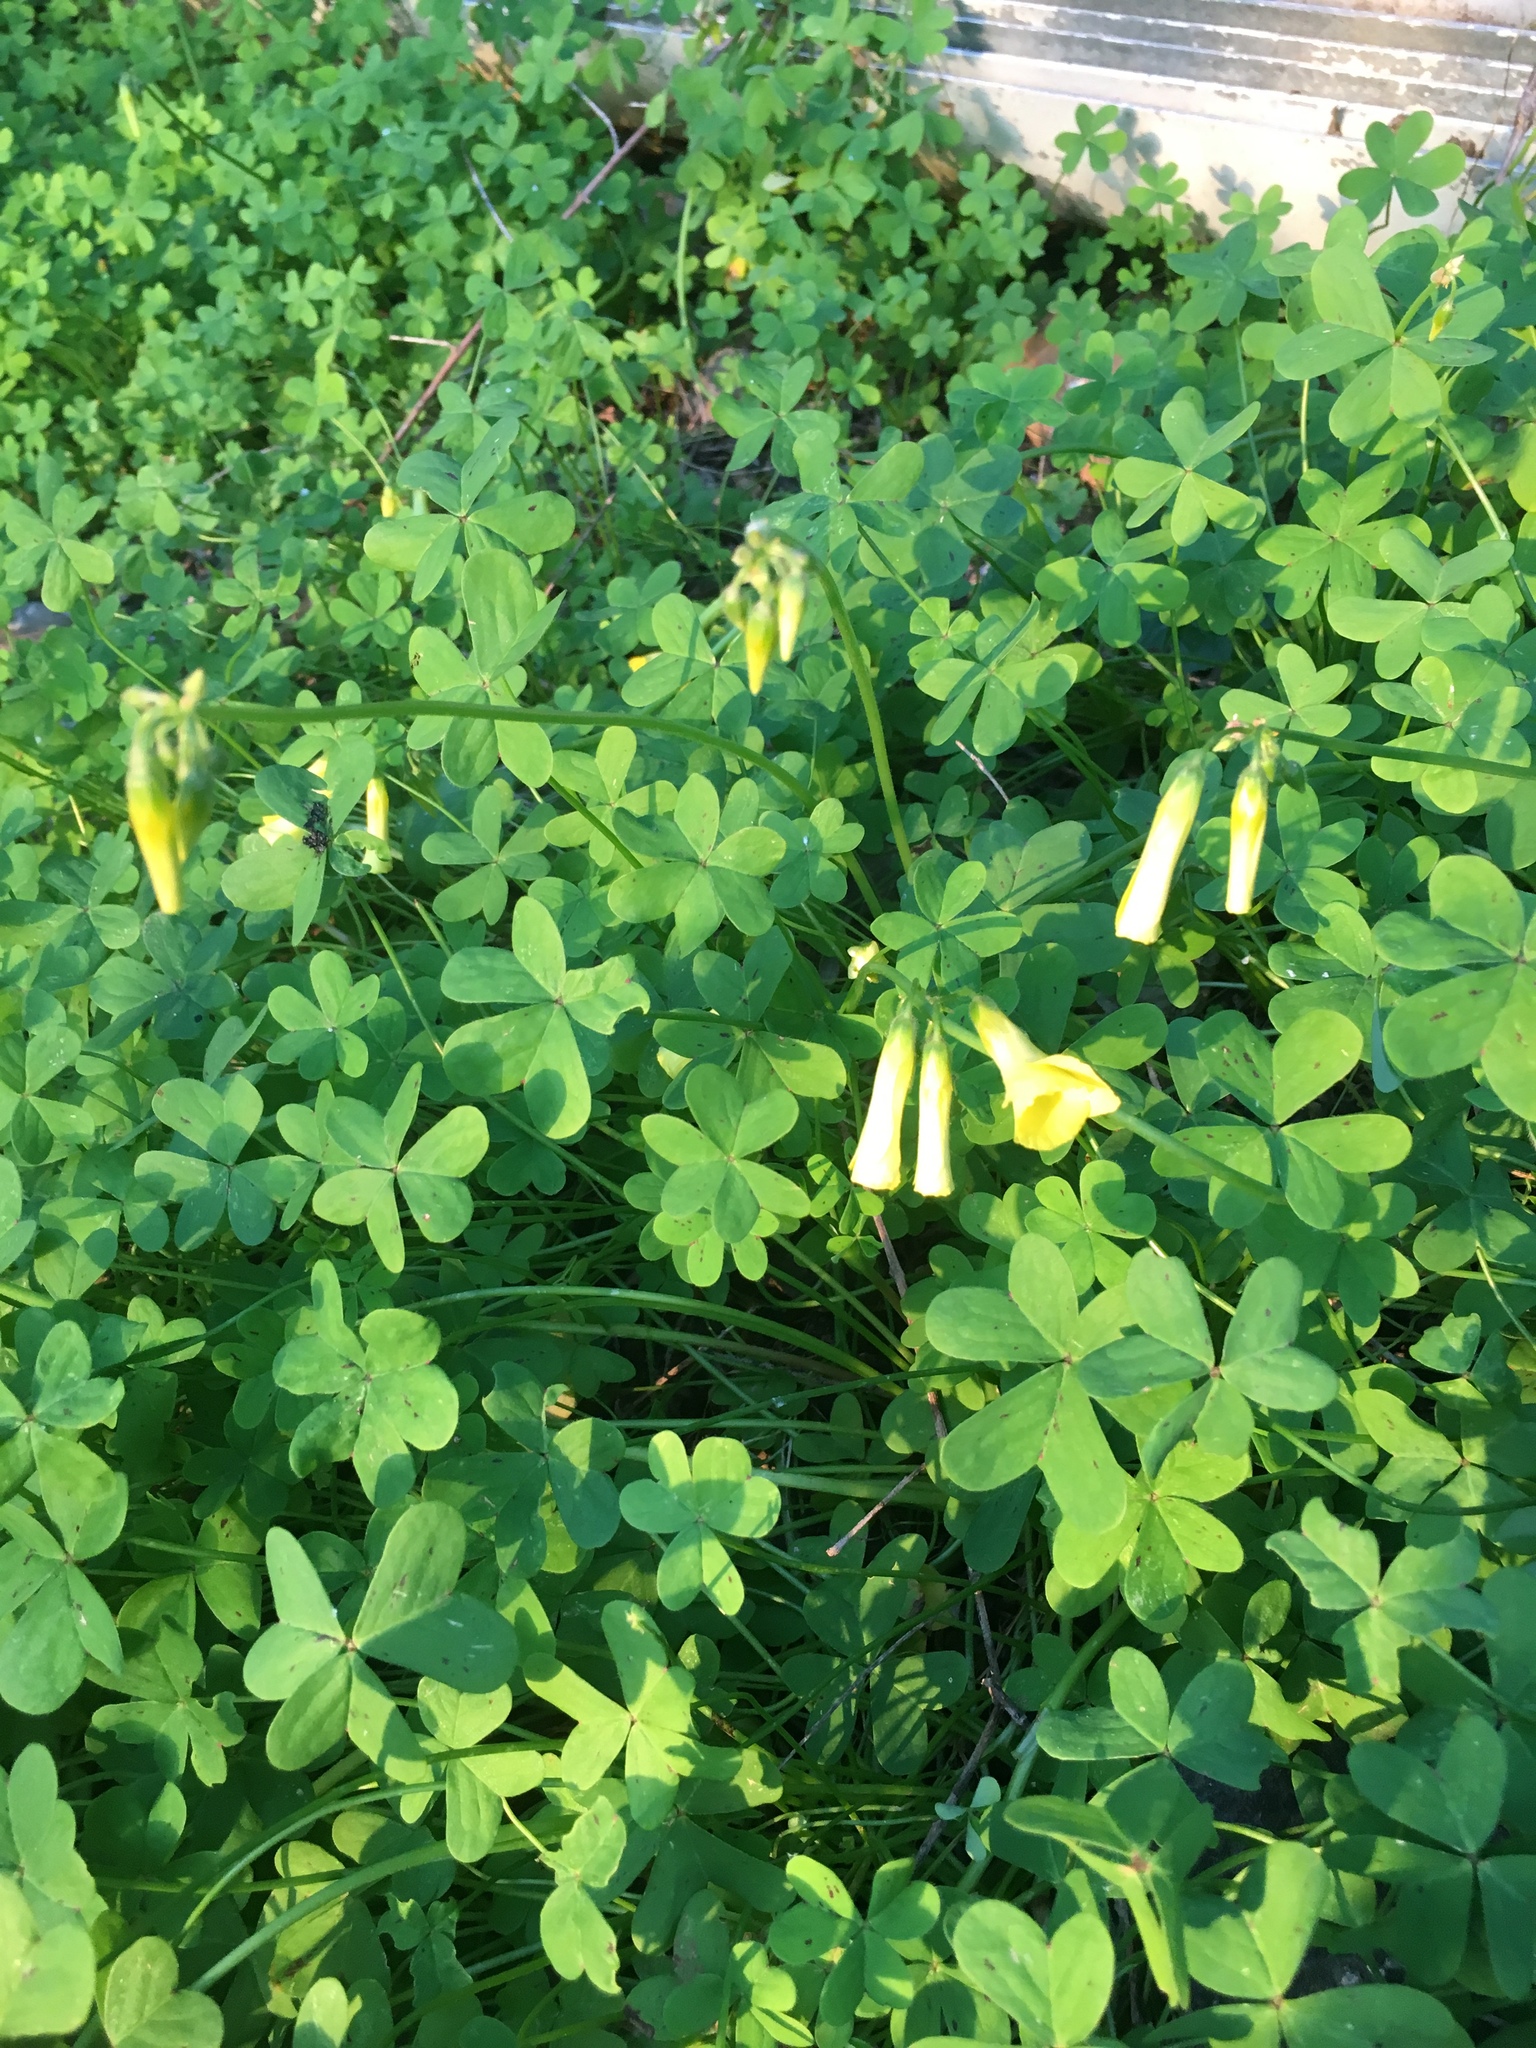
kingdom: Plantae
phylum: Tracheophyta
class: Magnoliopsida
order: Oxalidales
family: Oxalidaceae
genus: Oxalis
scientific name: Oxalis pes-caprae
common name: Bermuda-buttercup
